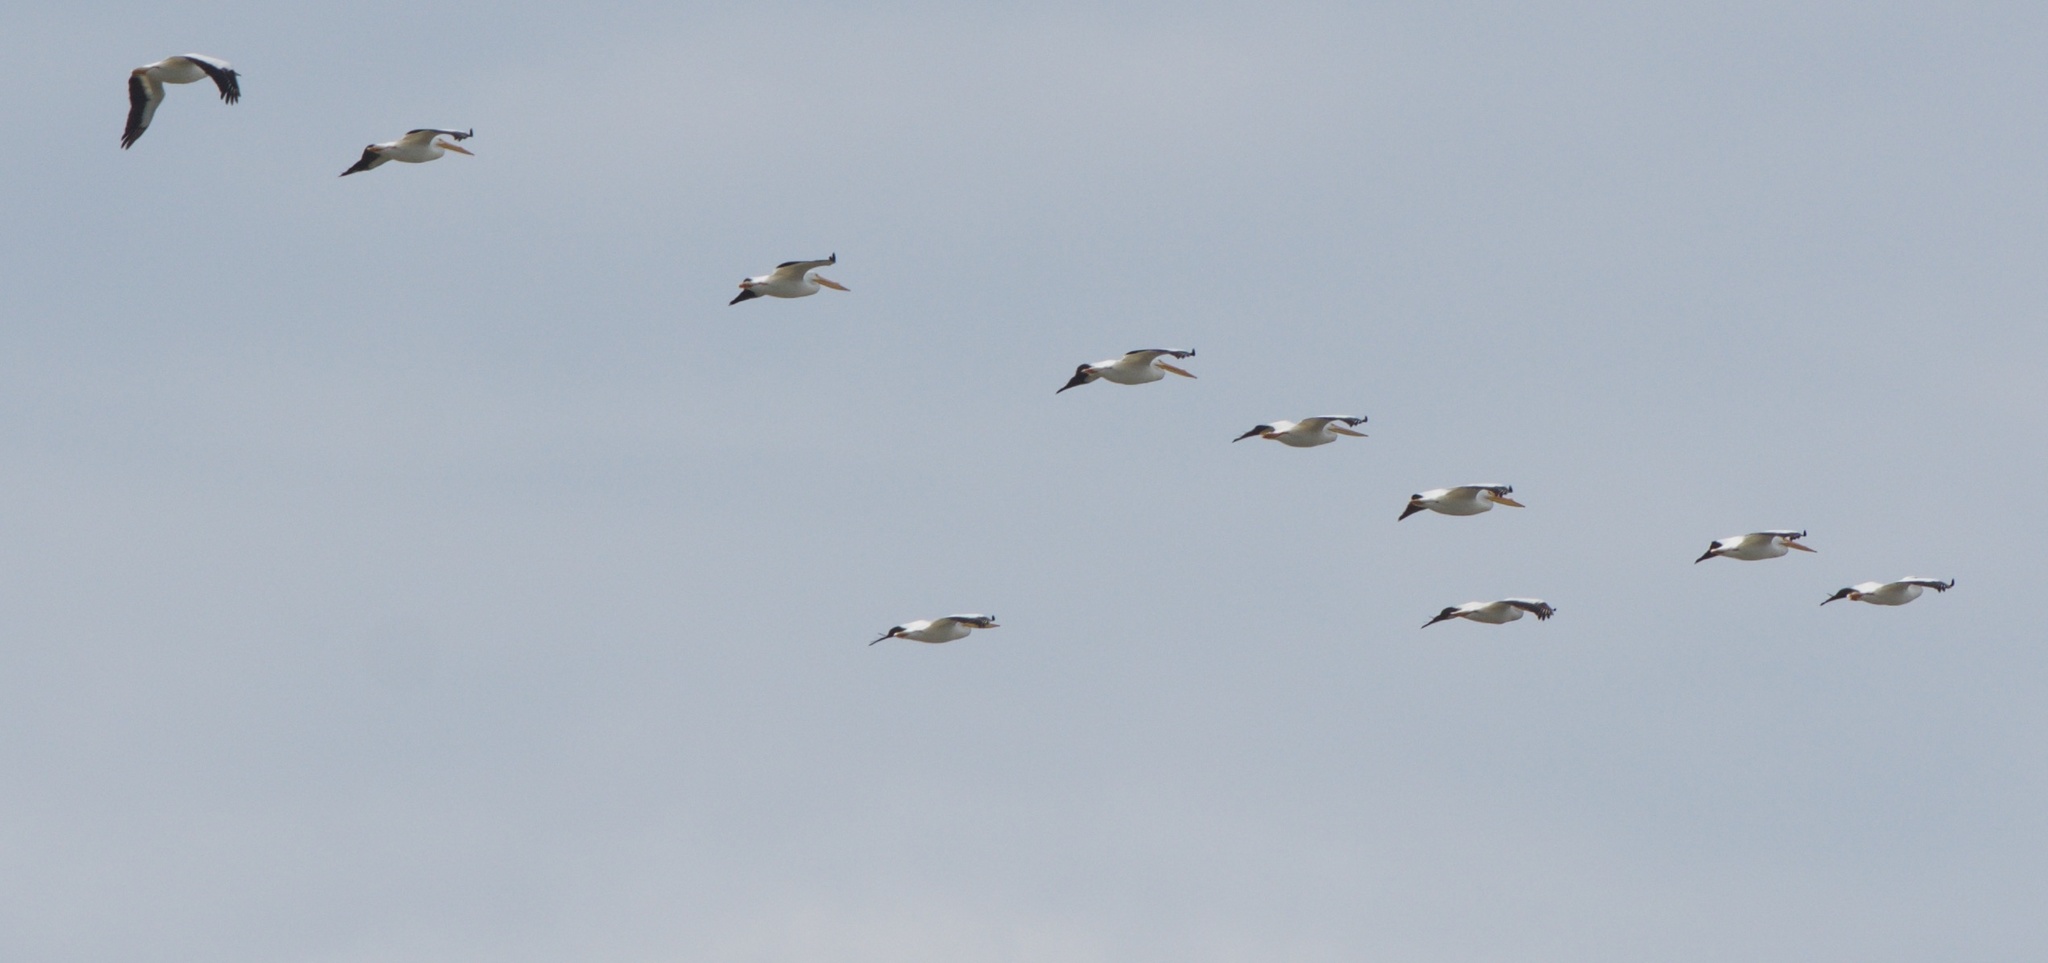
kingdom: Animalia
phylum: Chordata
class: Aves
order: Pelecaniformes
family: Pelecanidae
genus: Pelecanus
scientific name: Pelecanus erythrorhynchos
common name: American white pelican
